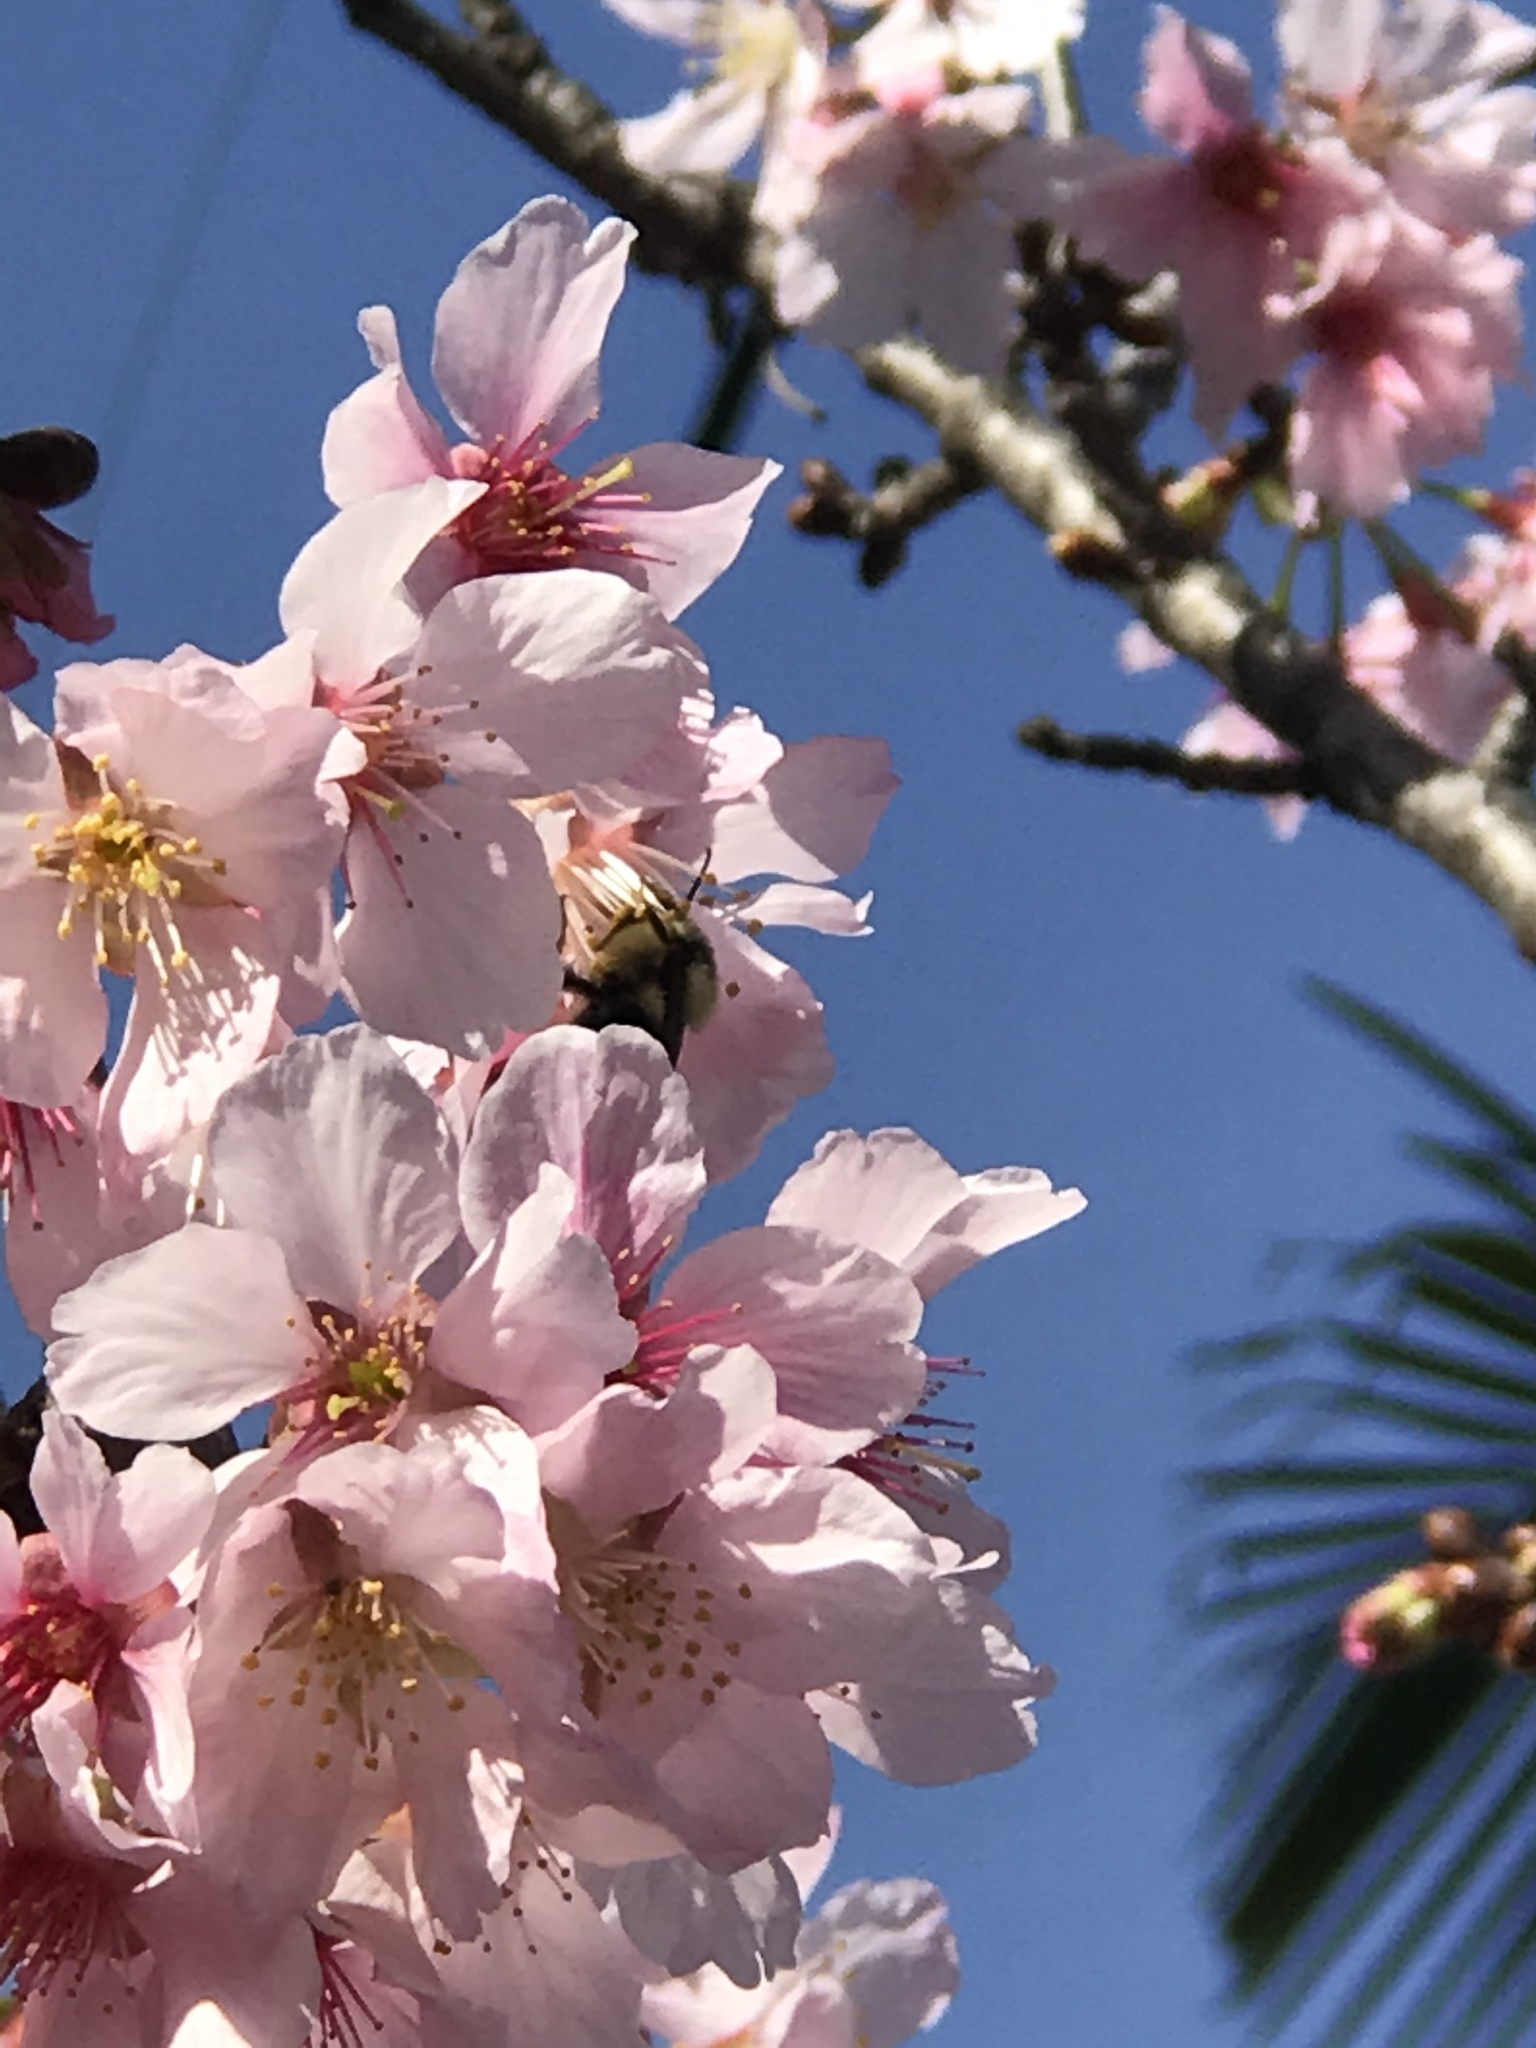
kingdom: Animalia
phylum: Arthropoda
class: Insecta
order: Hymenoptera
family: Apidae
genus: Bombus
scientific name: Bombus melanopygus
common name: Black tail bumble bee
